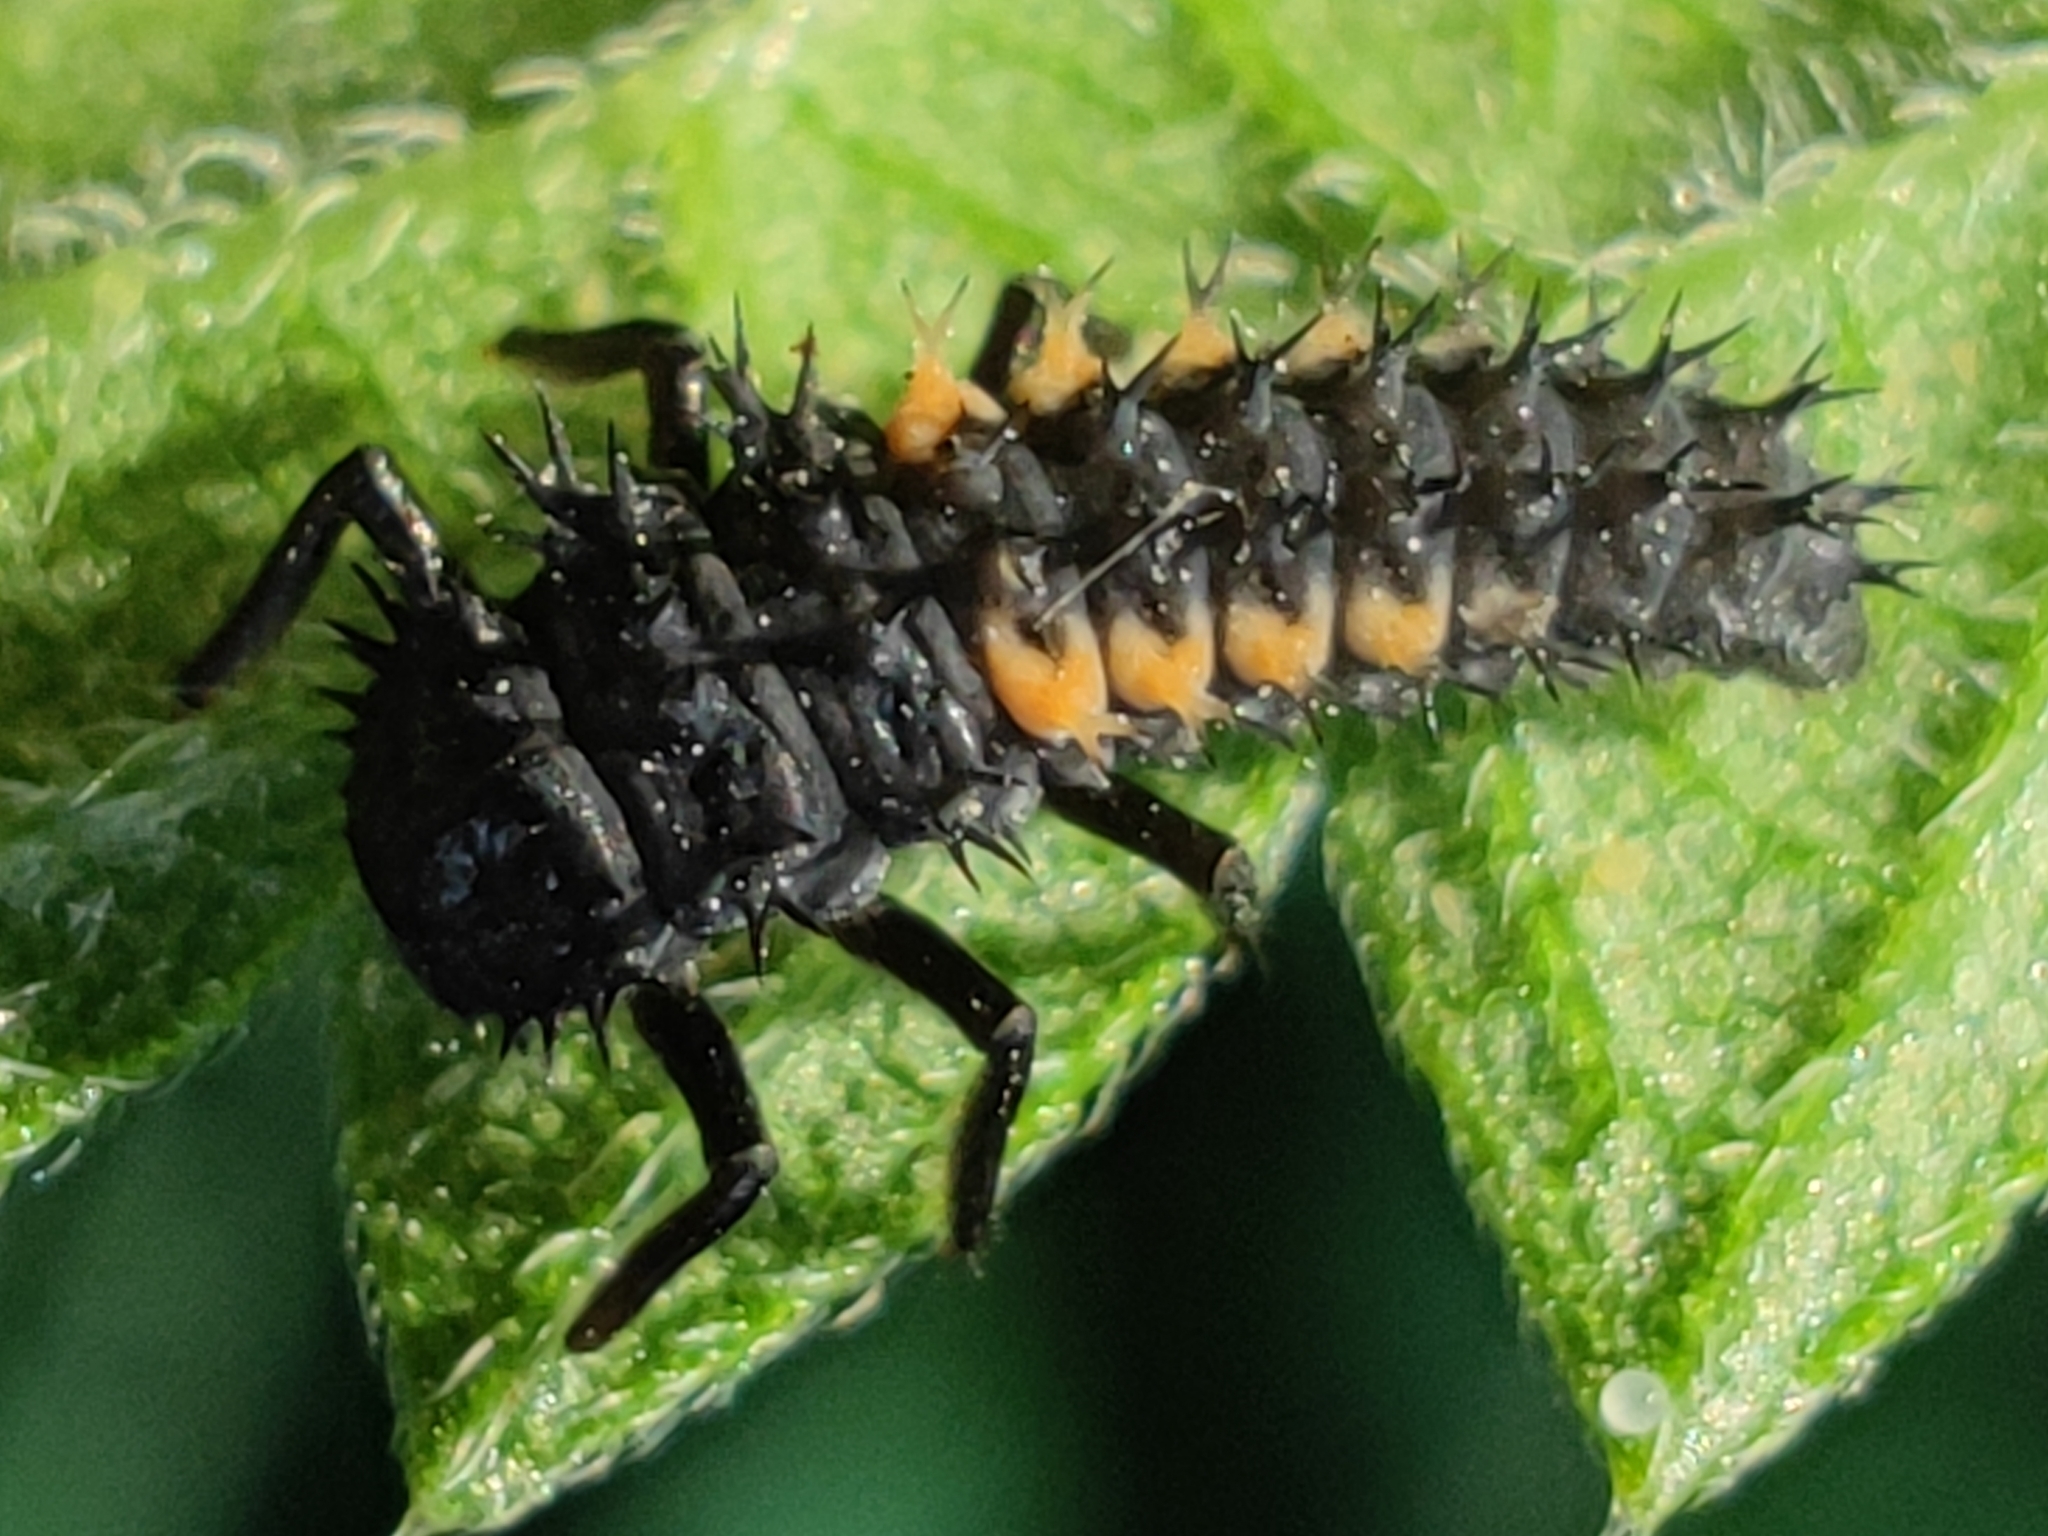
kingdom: Animalia
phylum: Arthropoda
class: Insecta
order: Coleoptera
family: Coccinellidae
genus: Harmonia
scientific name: Harmonia axyridis
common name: Harlequin ladybird
